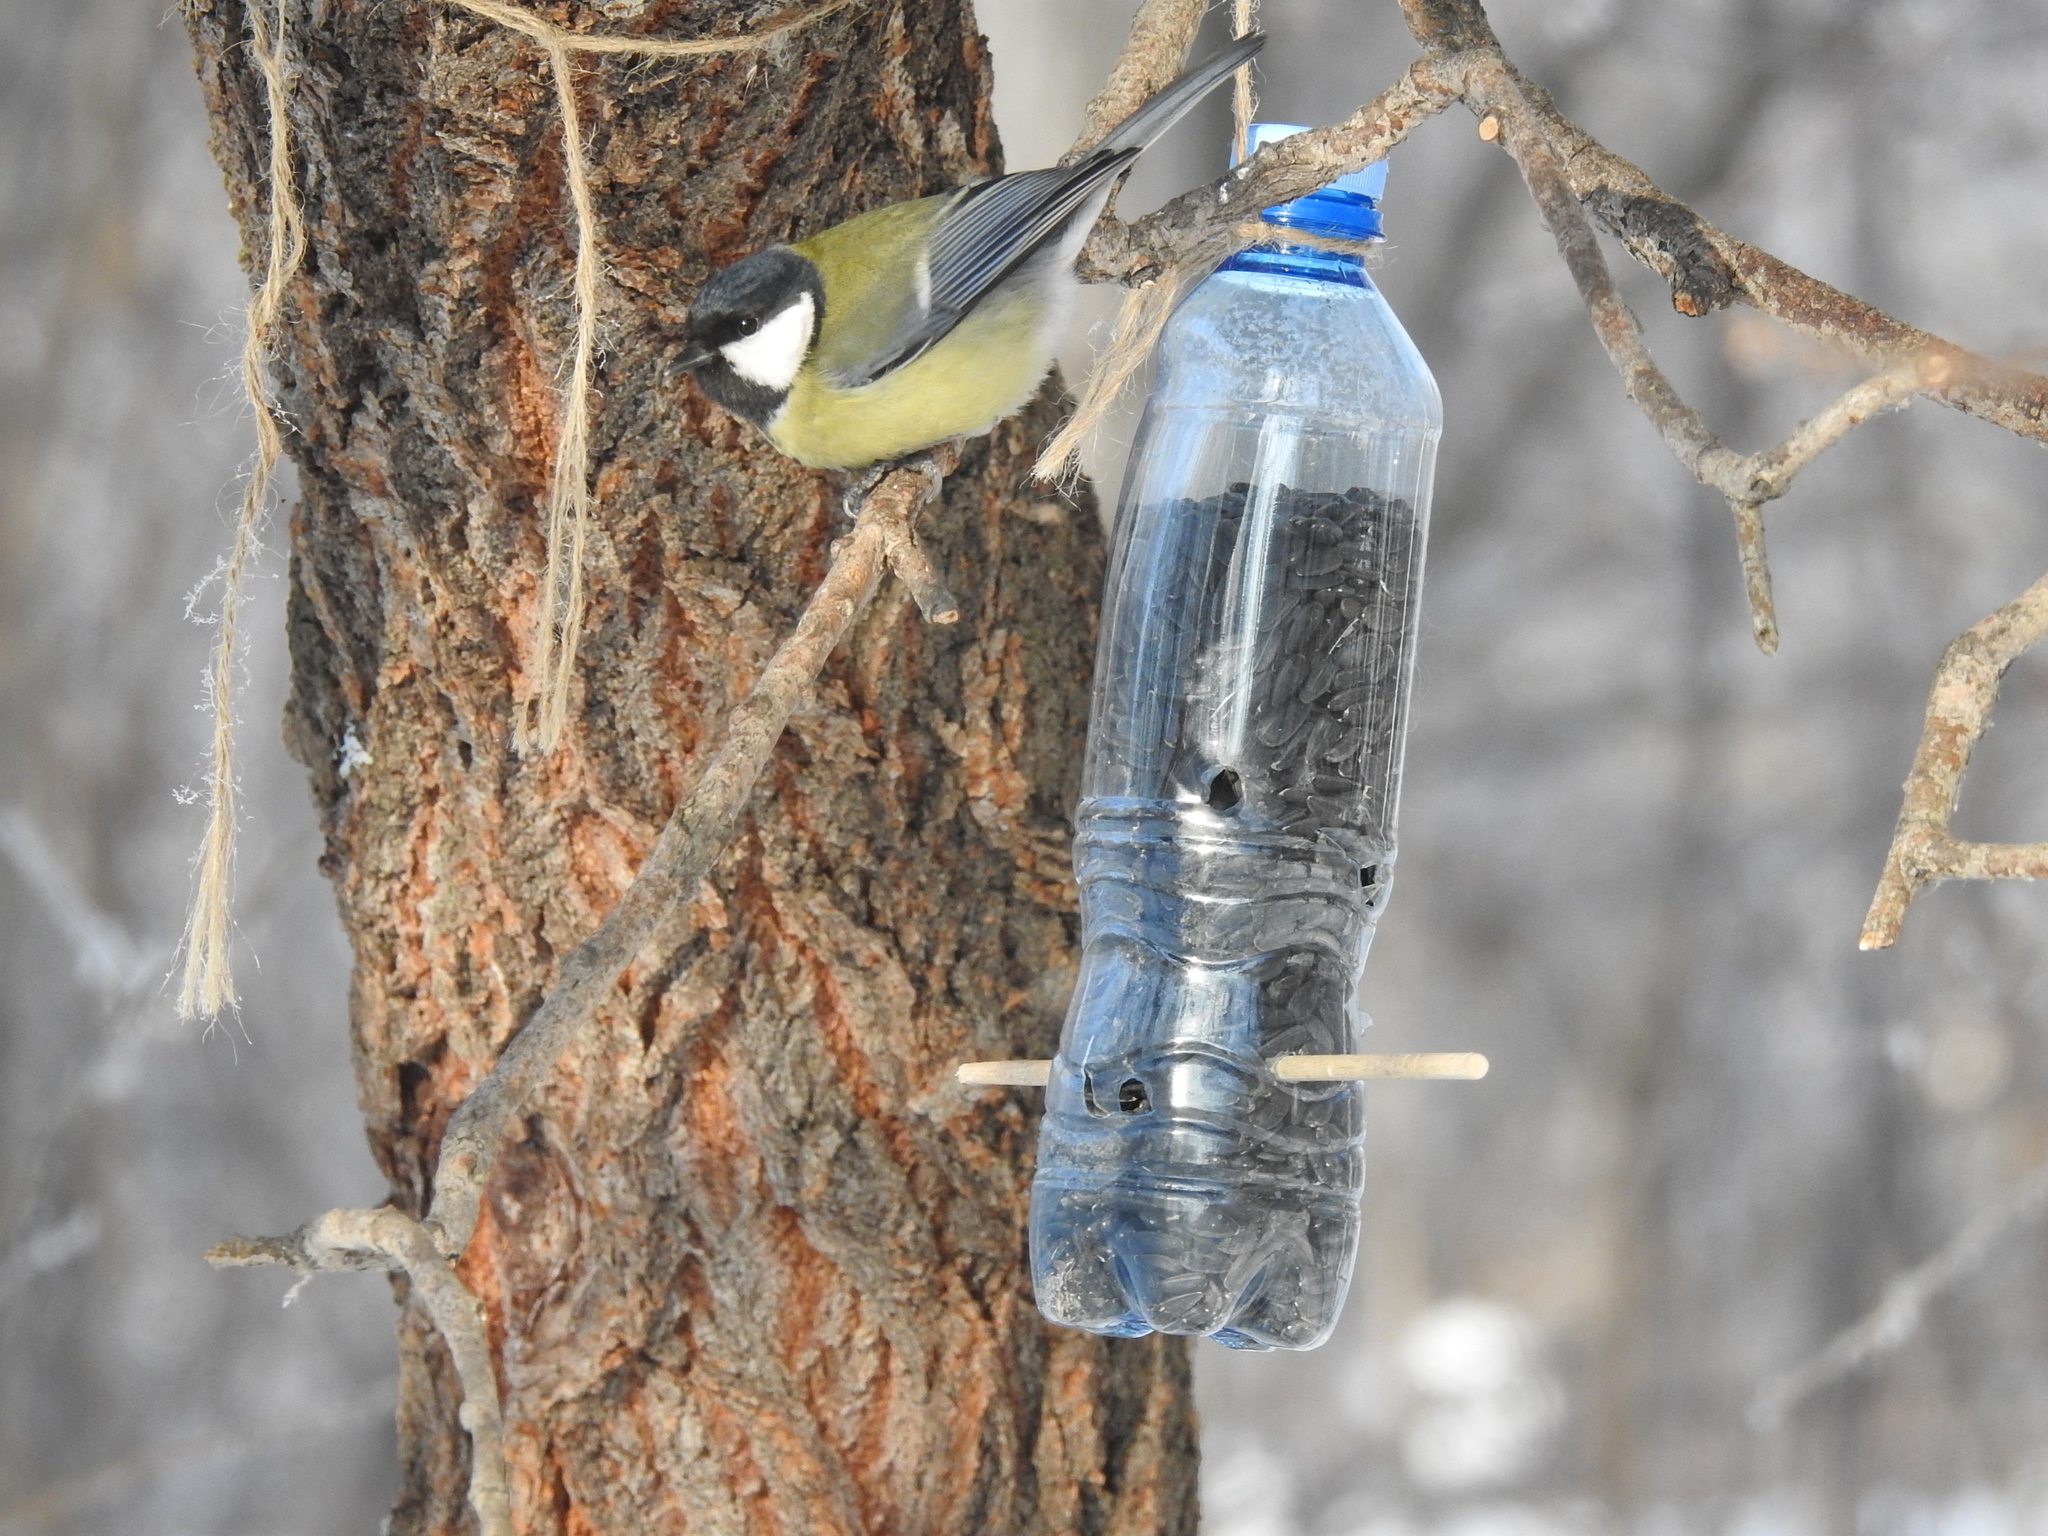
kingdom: Animalia
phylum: Chordata
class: Aves
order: Passeriformes
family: Paridae
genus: Parus
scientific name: Parus major
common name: Great tit
